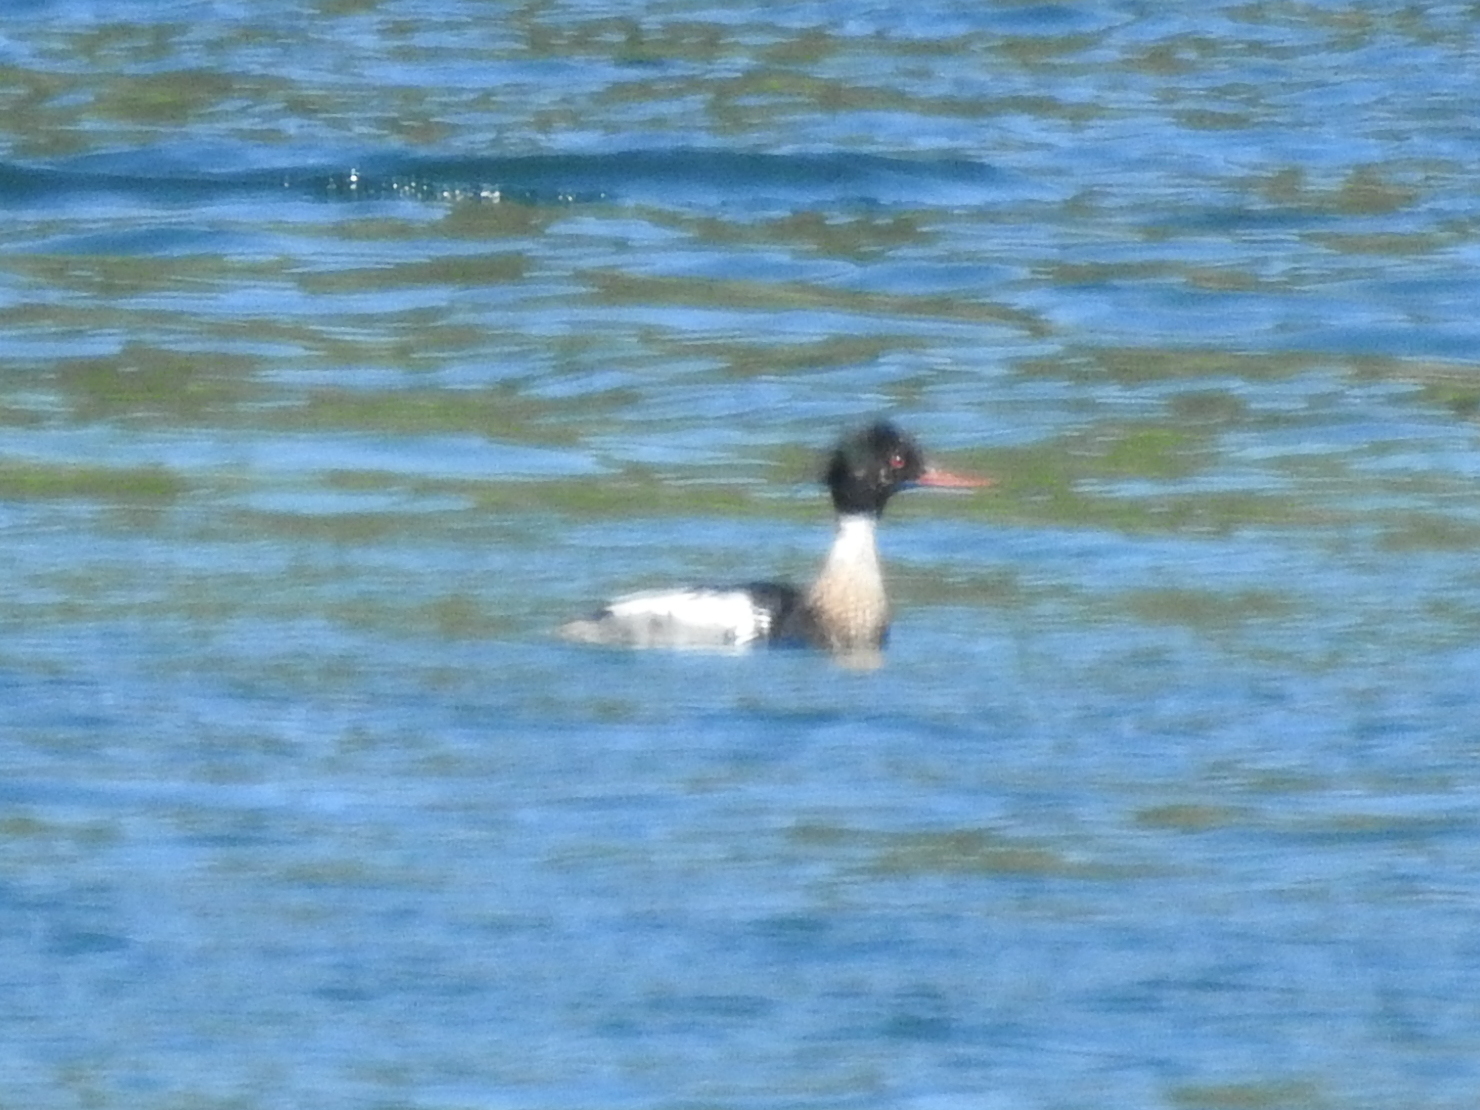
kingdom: Animalia
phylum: Chordata
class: Aves
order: Anseriformes
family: Anatidae
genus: Mergus
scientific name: Mergus serrator
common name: Red-breasted merganser
